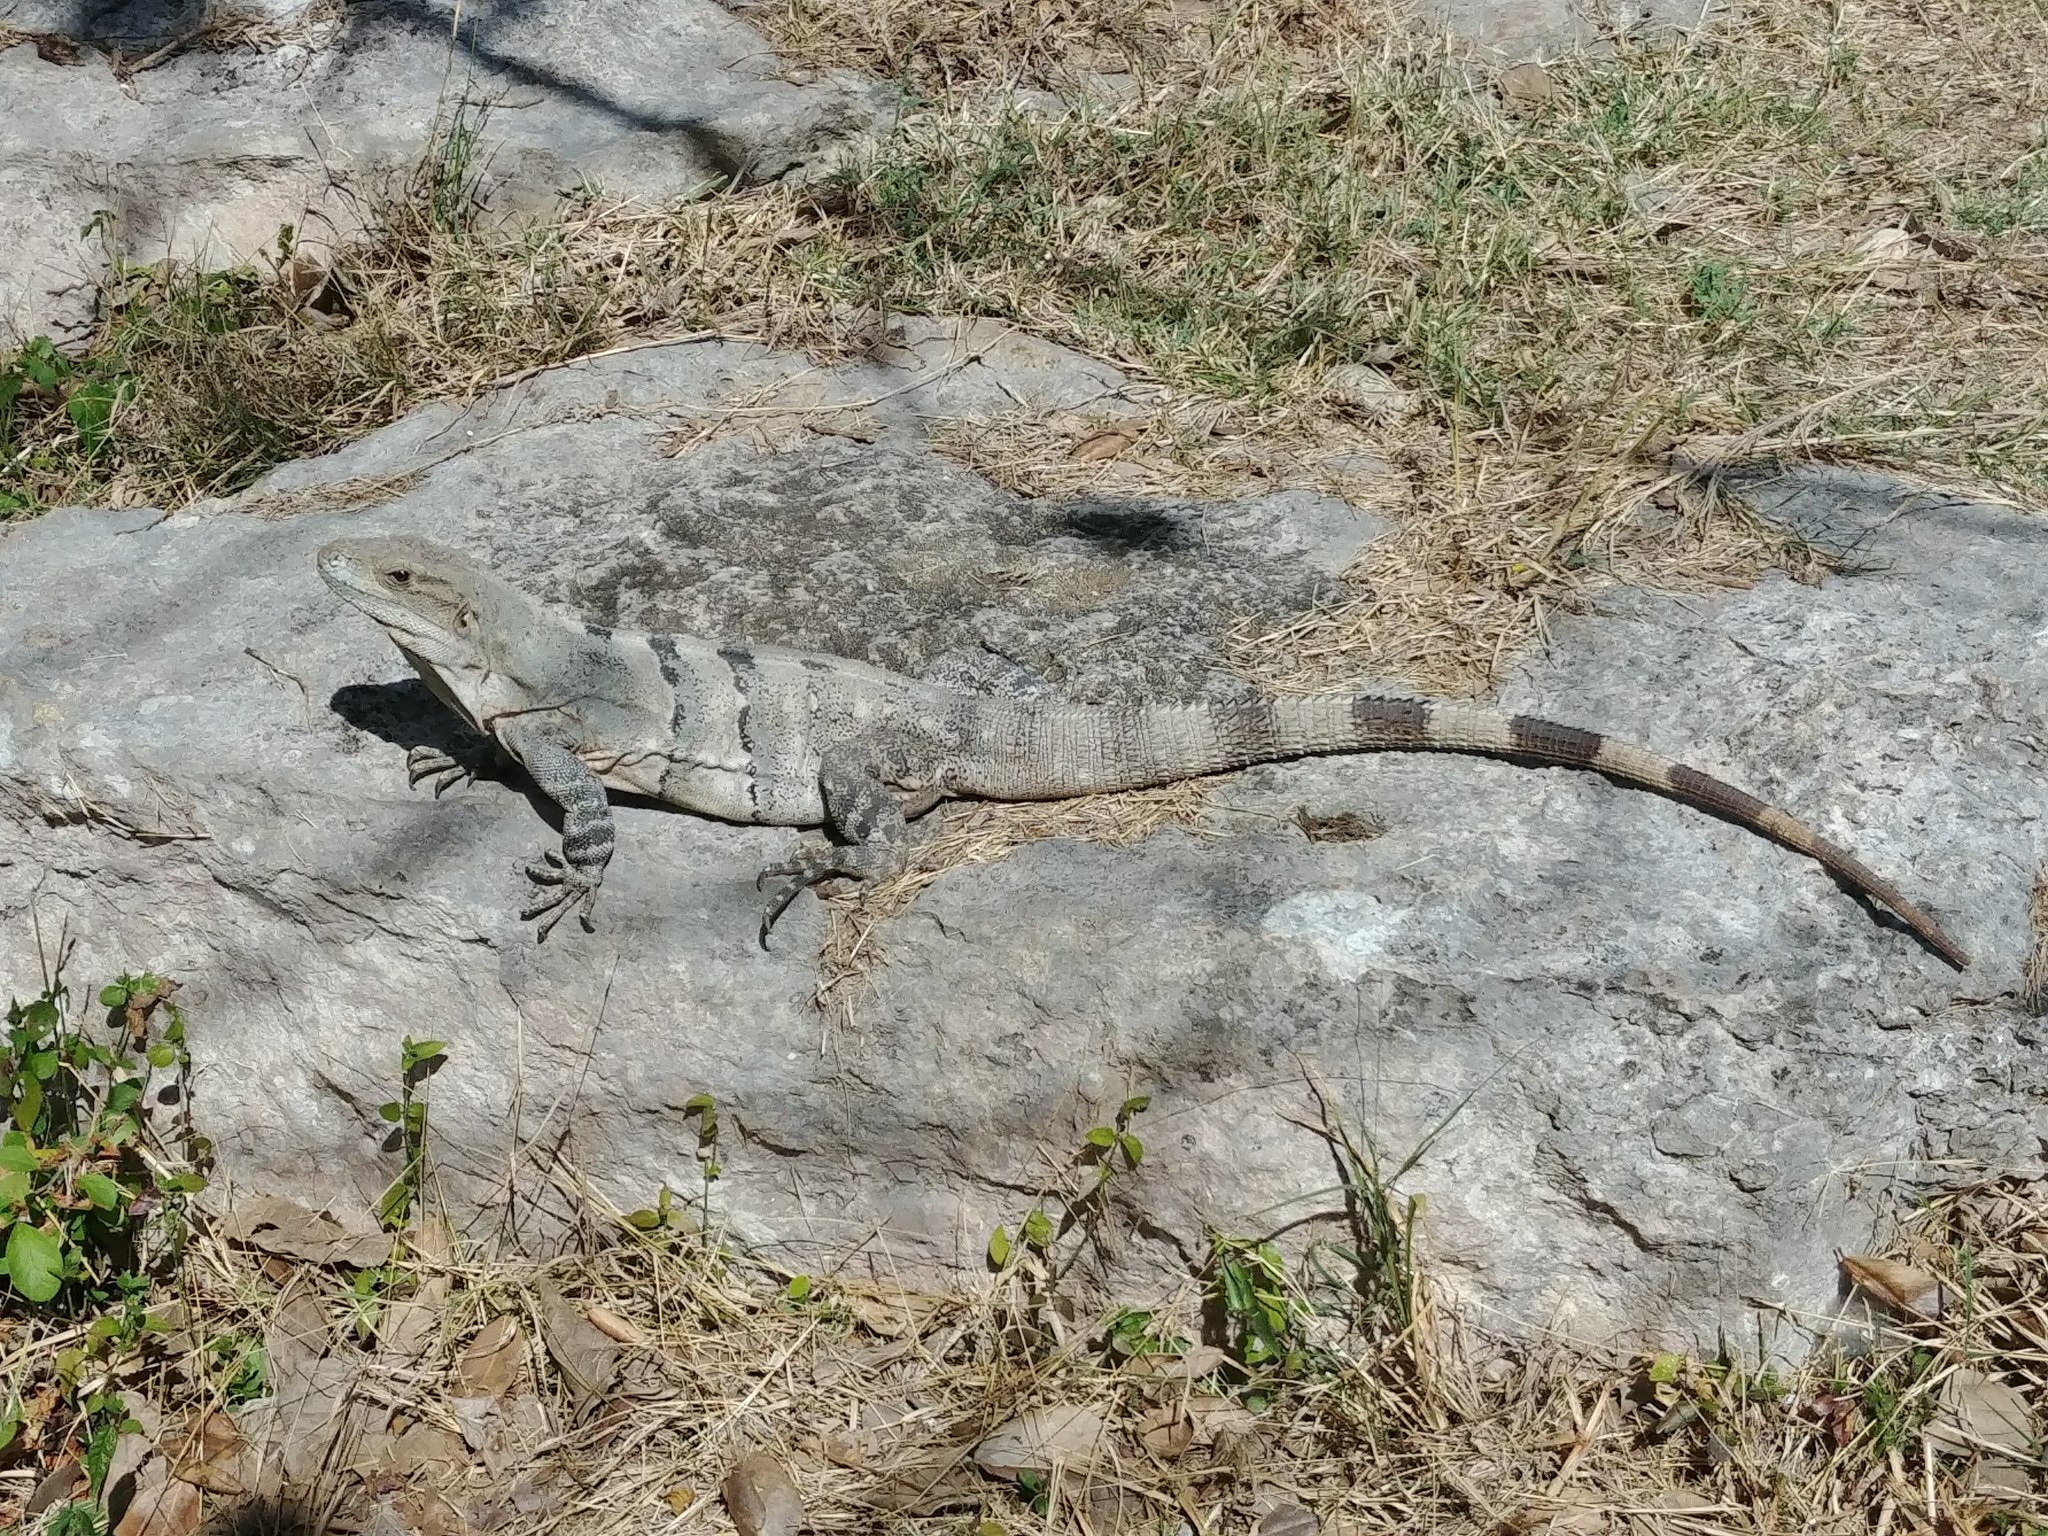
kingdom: Animalia
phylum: Chordata
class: Squamata
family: Iguanidae
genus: Ctenosaura
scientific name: Ctenosaura similis
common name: Black spiny-tailed iguana
